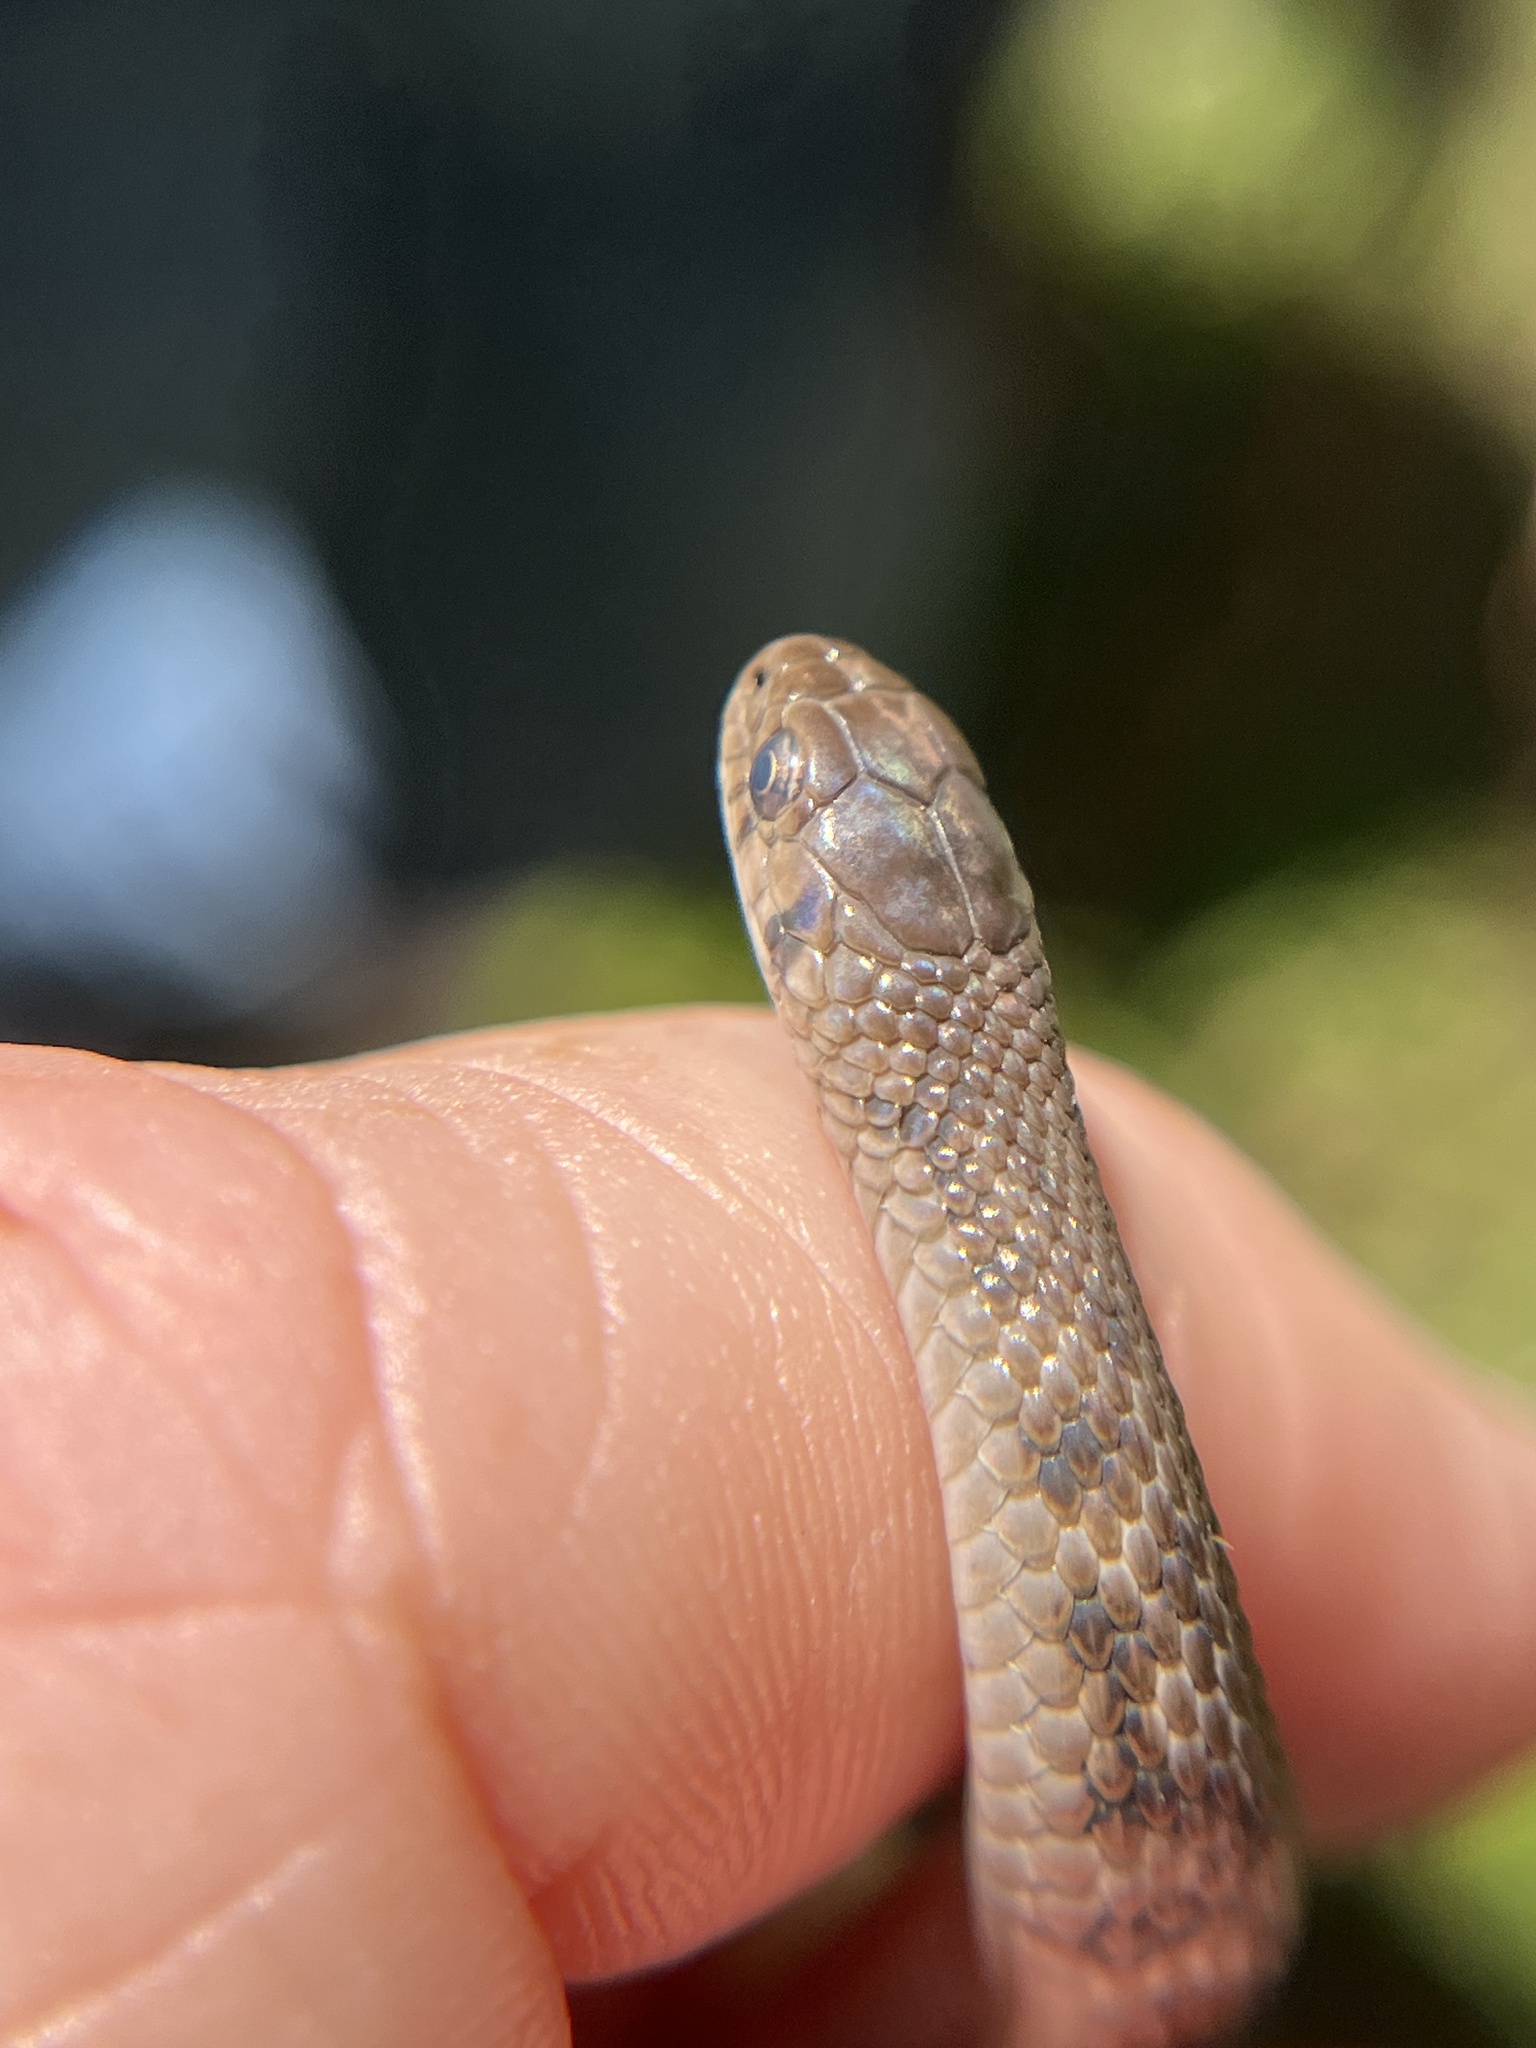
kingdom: Animalia
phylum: Chordata
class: Squamata
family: Colubridae
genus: Storeria
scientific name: Storeria dekayi
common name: (dekay’s) brown snake
